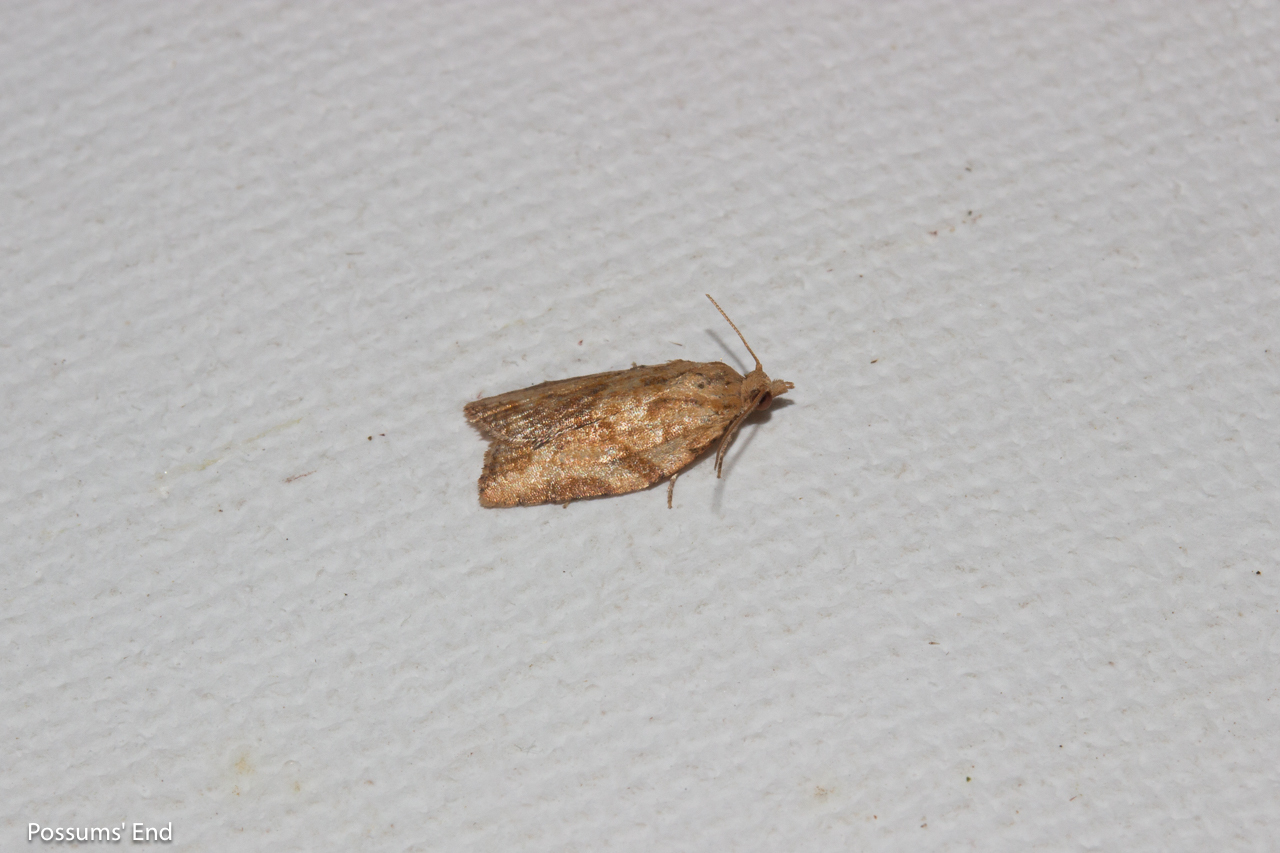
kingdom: Animalia
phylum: Arthropoda
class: Insecta
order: Lepidoptera
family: Tortricidae
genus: Epiphyas
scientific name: Epiphyas postvittana
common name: Light brown apple moth
